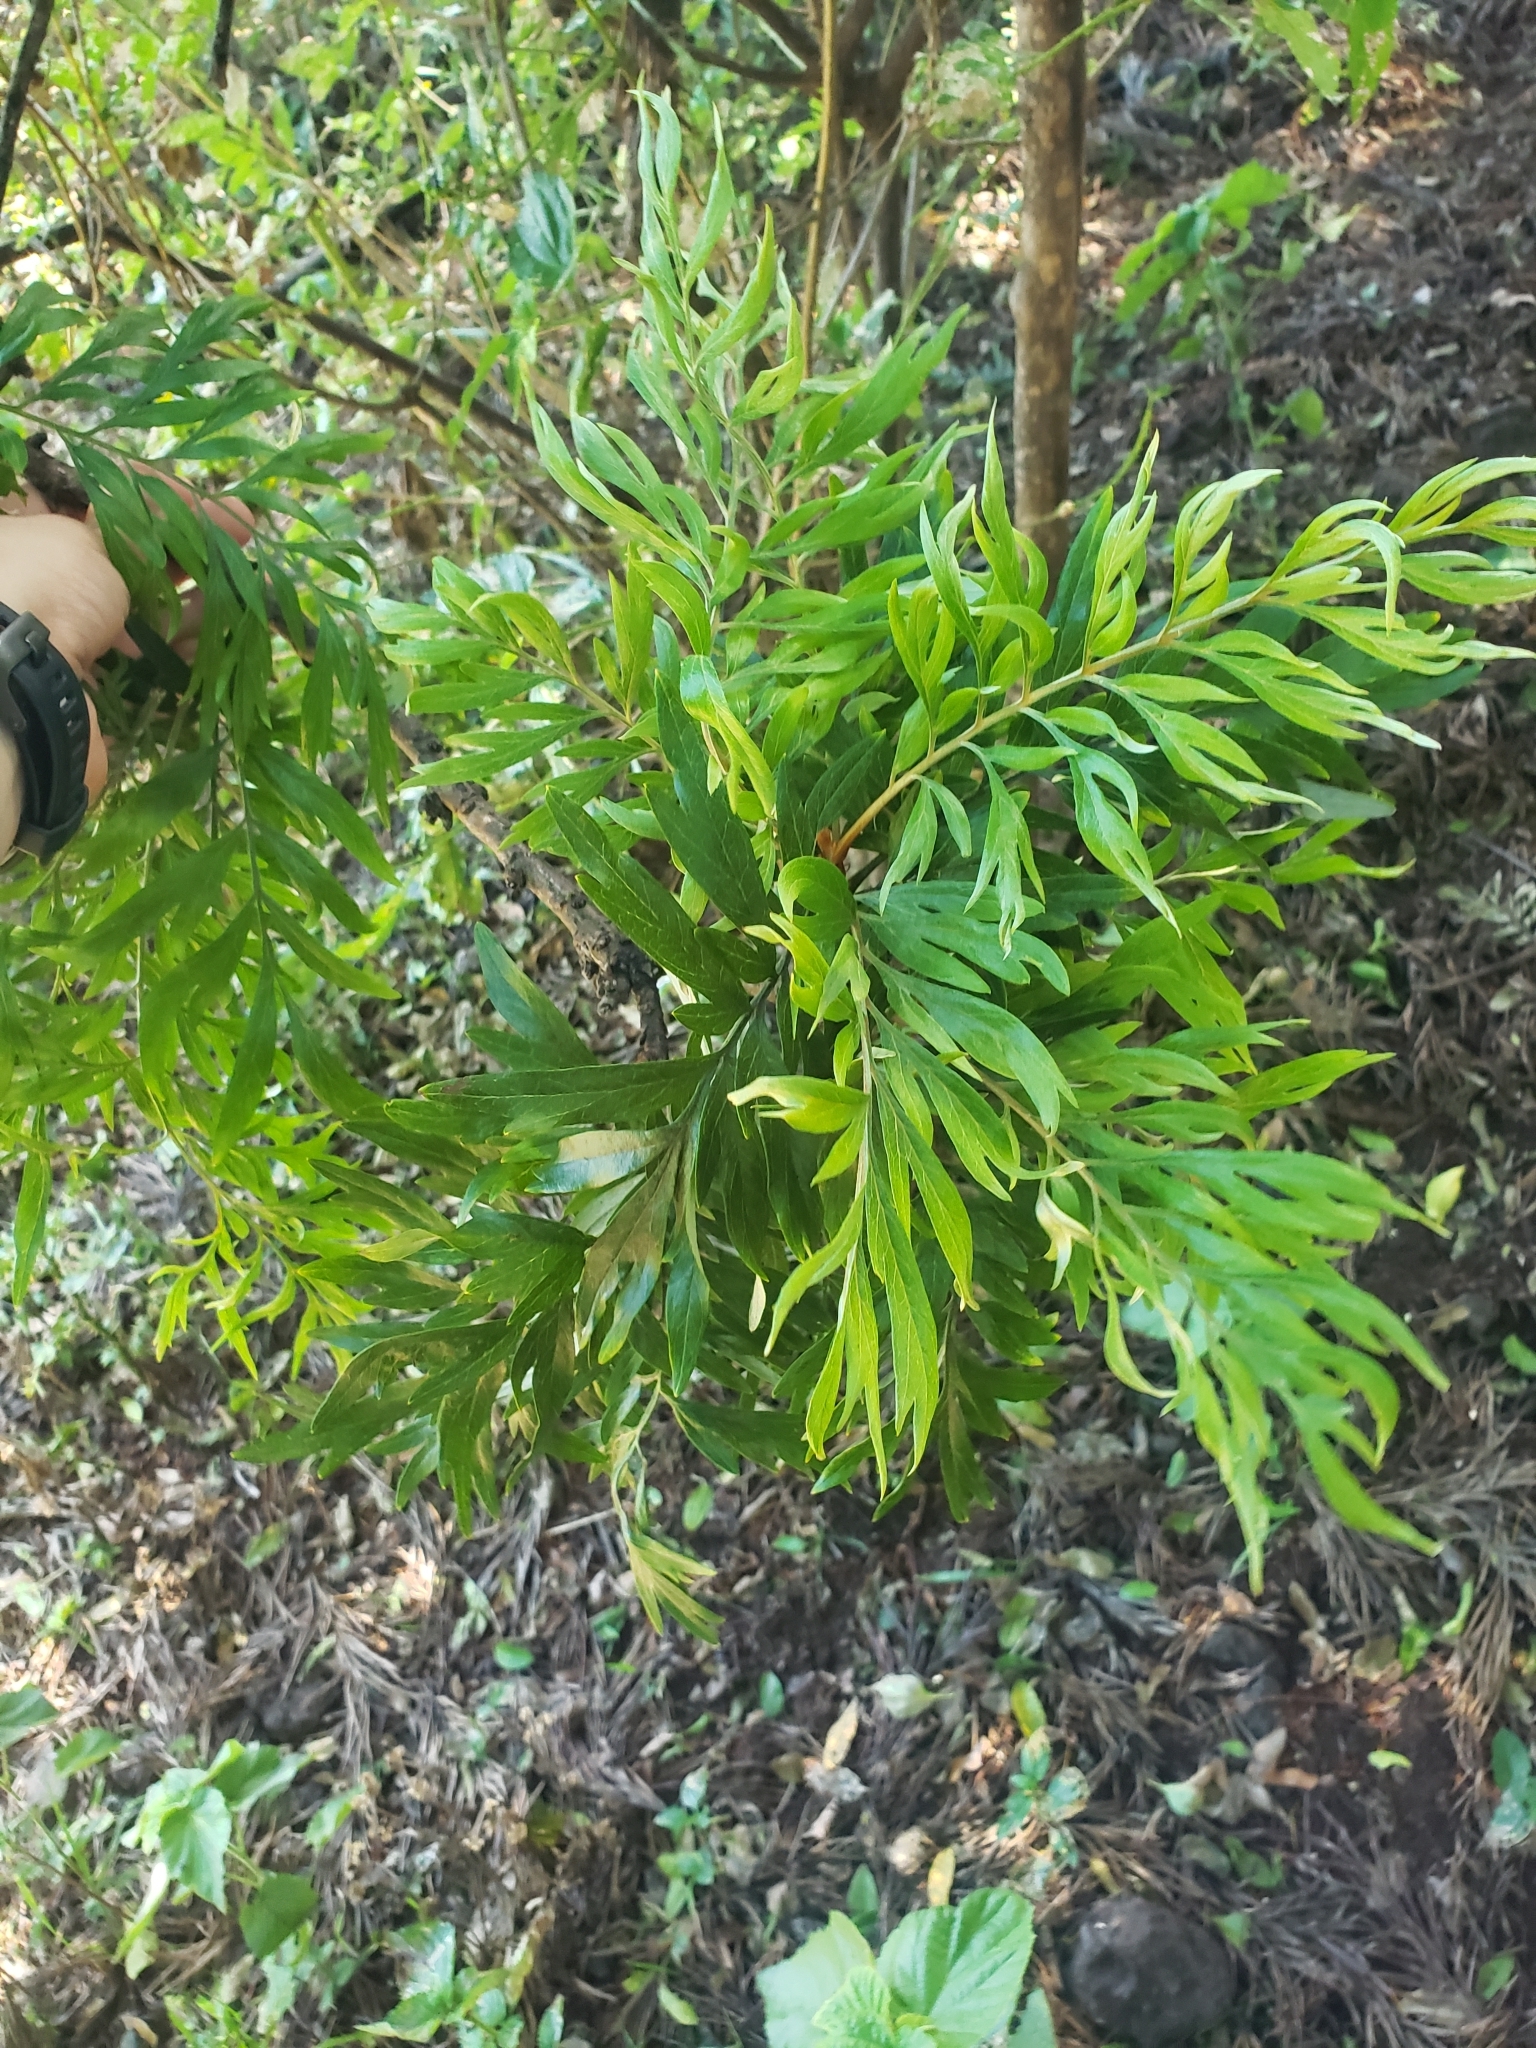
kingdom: Plantae
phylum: Tracheophyta
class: Magnoliopsida
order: Proteales
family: Proteaceae
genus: Grevillea
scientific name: Grevillea robusta
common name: Silkoak
